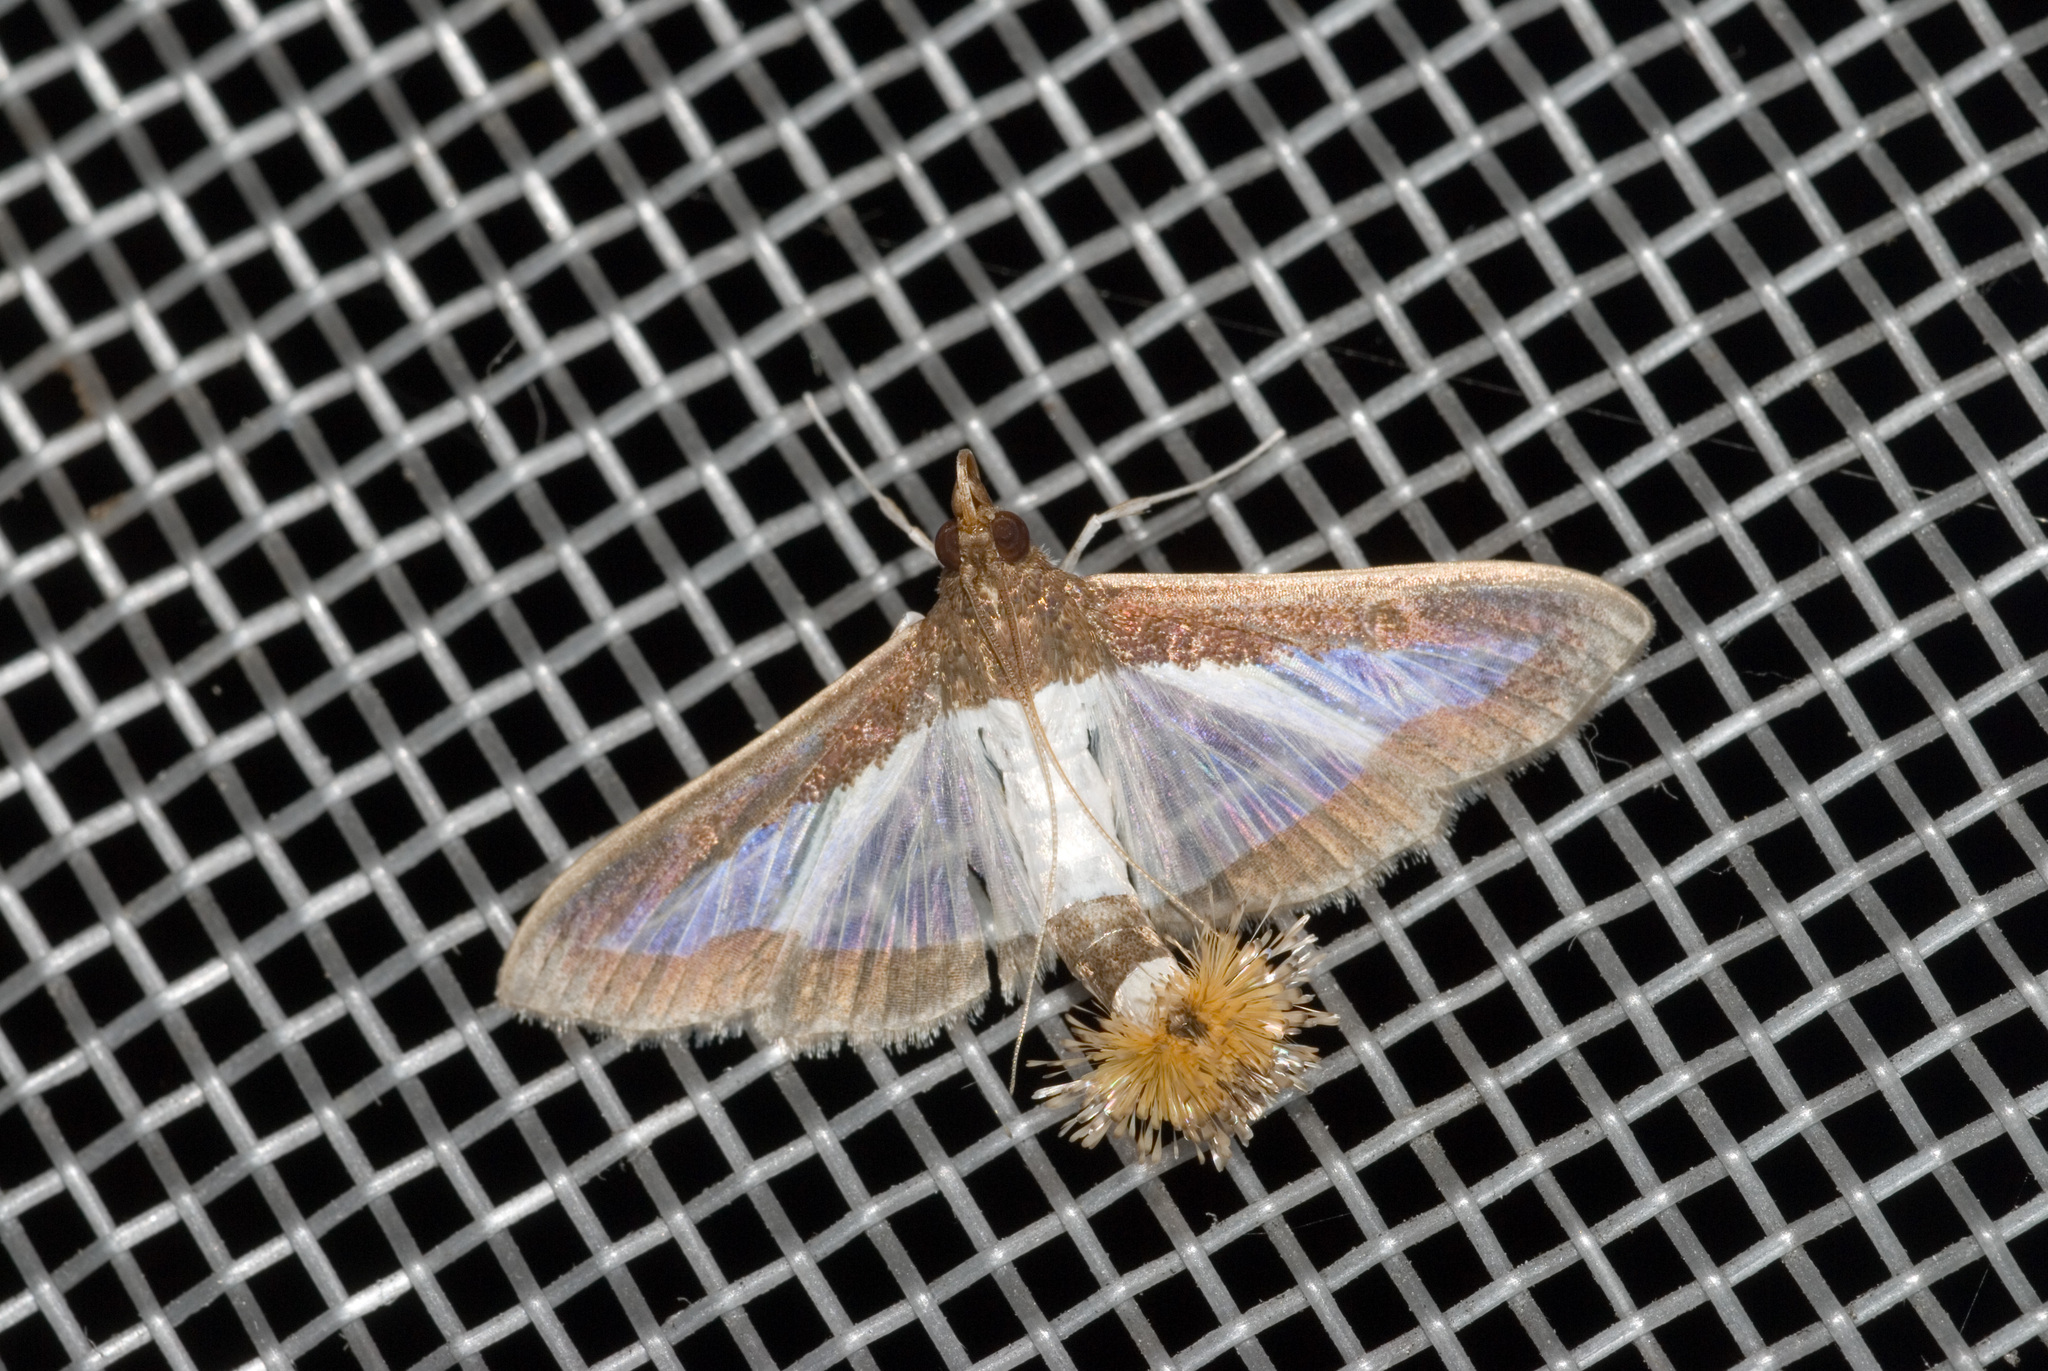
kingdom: Animalia
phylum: Arthropoda
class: Insecta
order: Lepidoptera
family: Crambidae
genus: Diaphania
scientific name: Diaphania indica
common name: Cucumber moth
